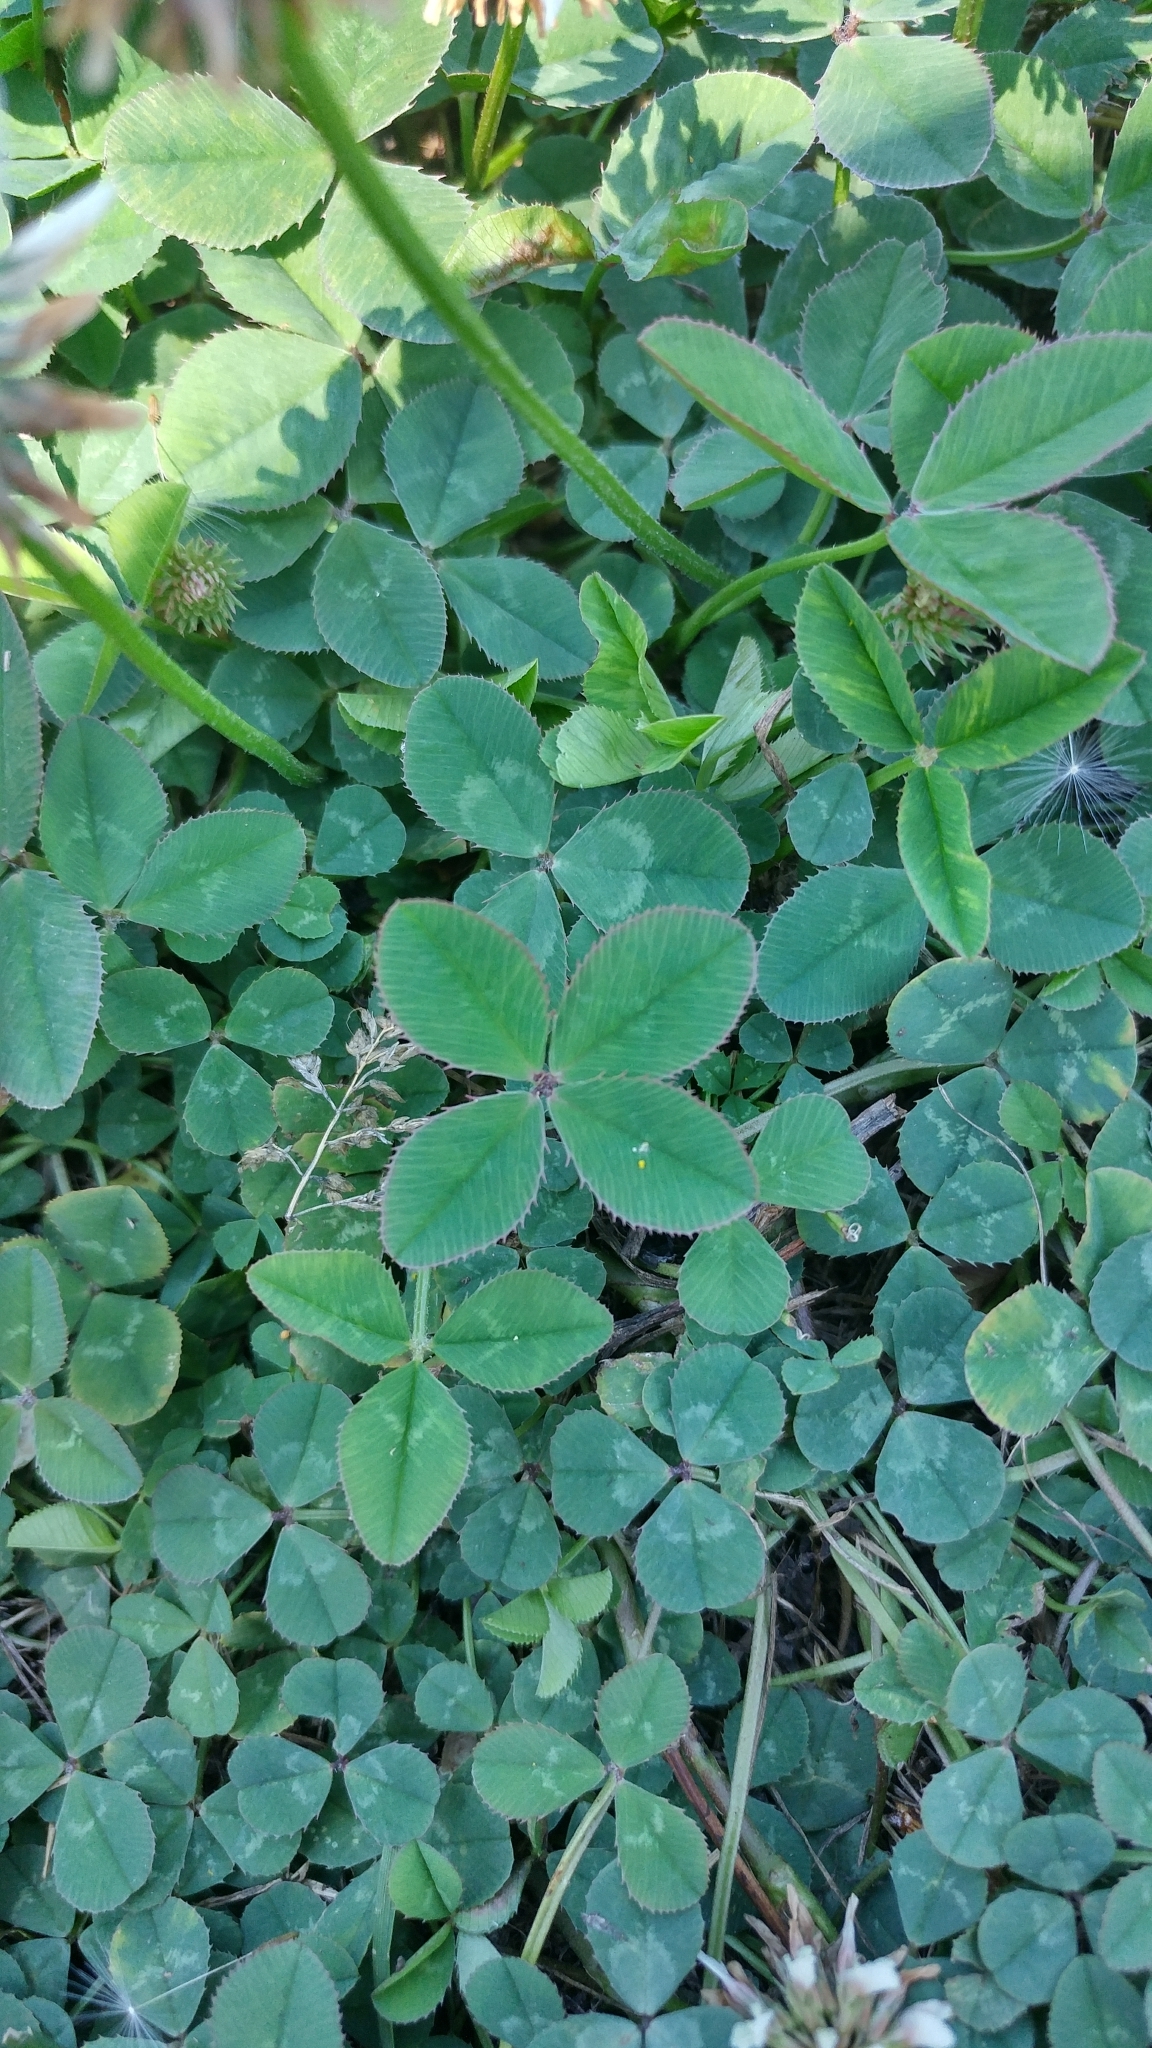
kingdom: Plantae
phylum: Tracheophyta
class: Magnoliopsida
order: Fabales
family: Fabaceae
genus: Trifolium
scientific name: Trifolium repens
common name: White clover
